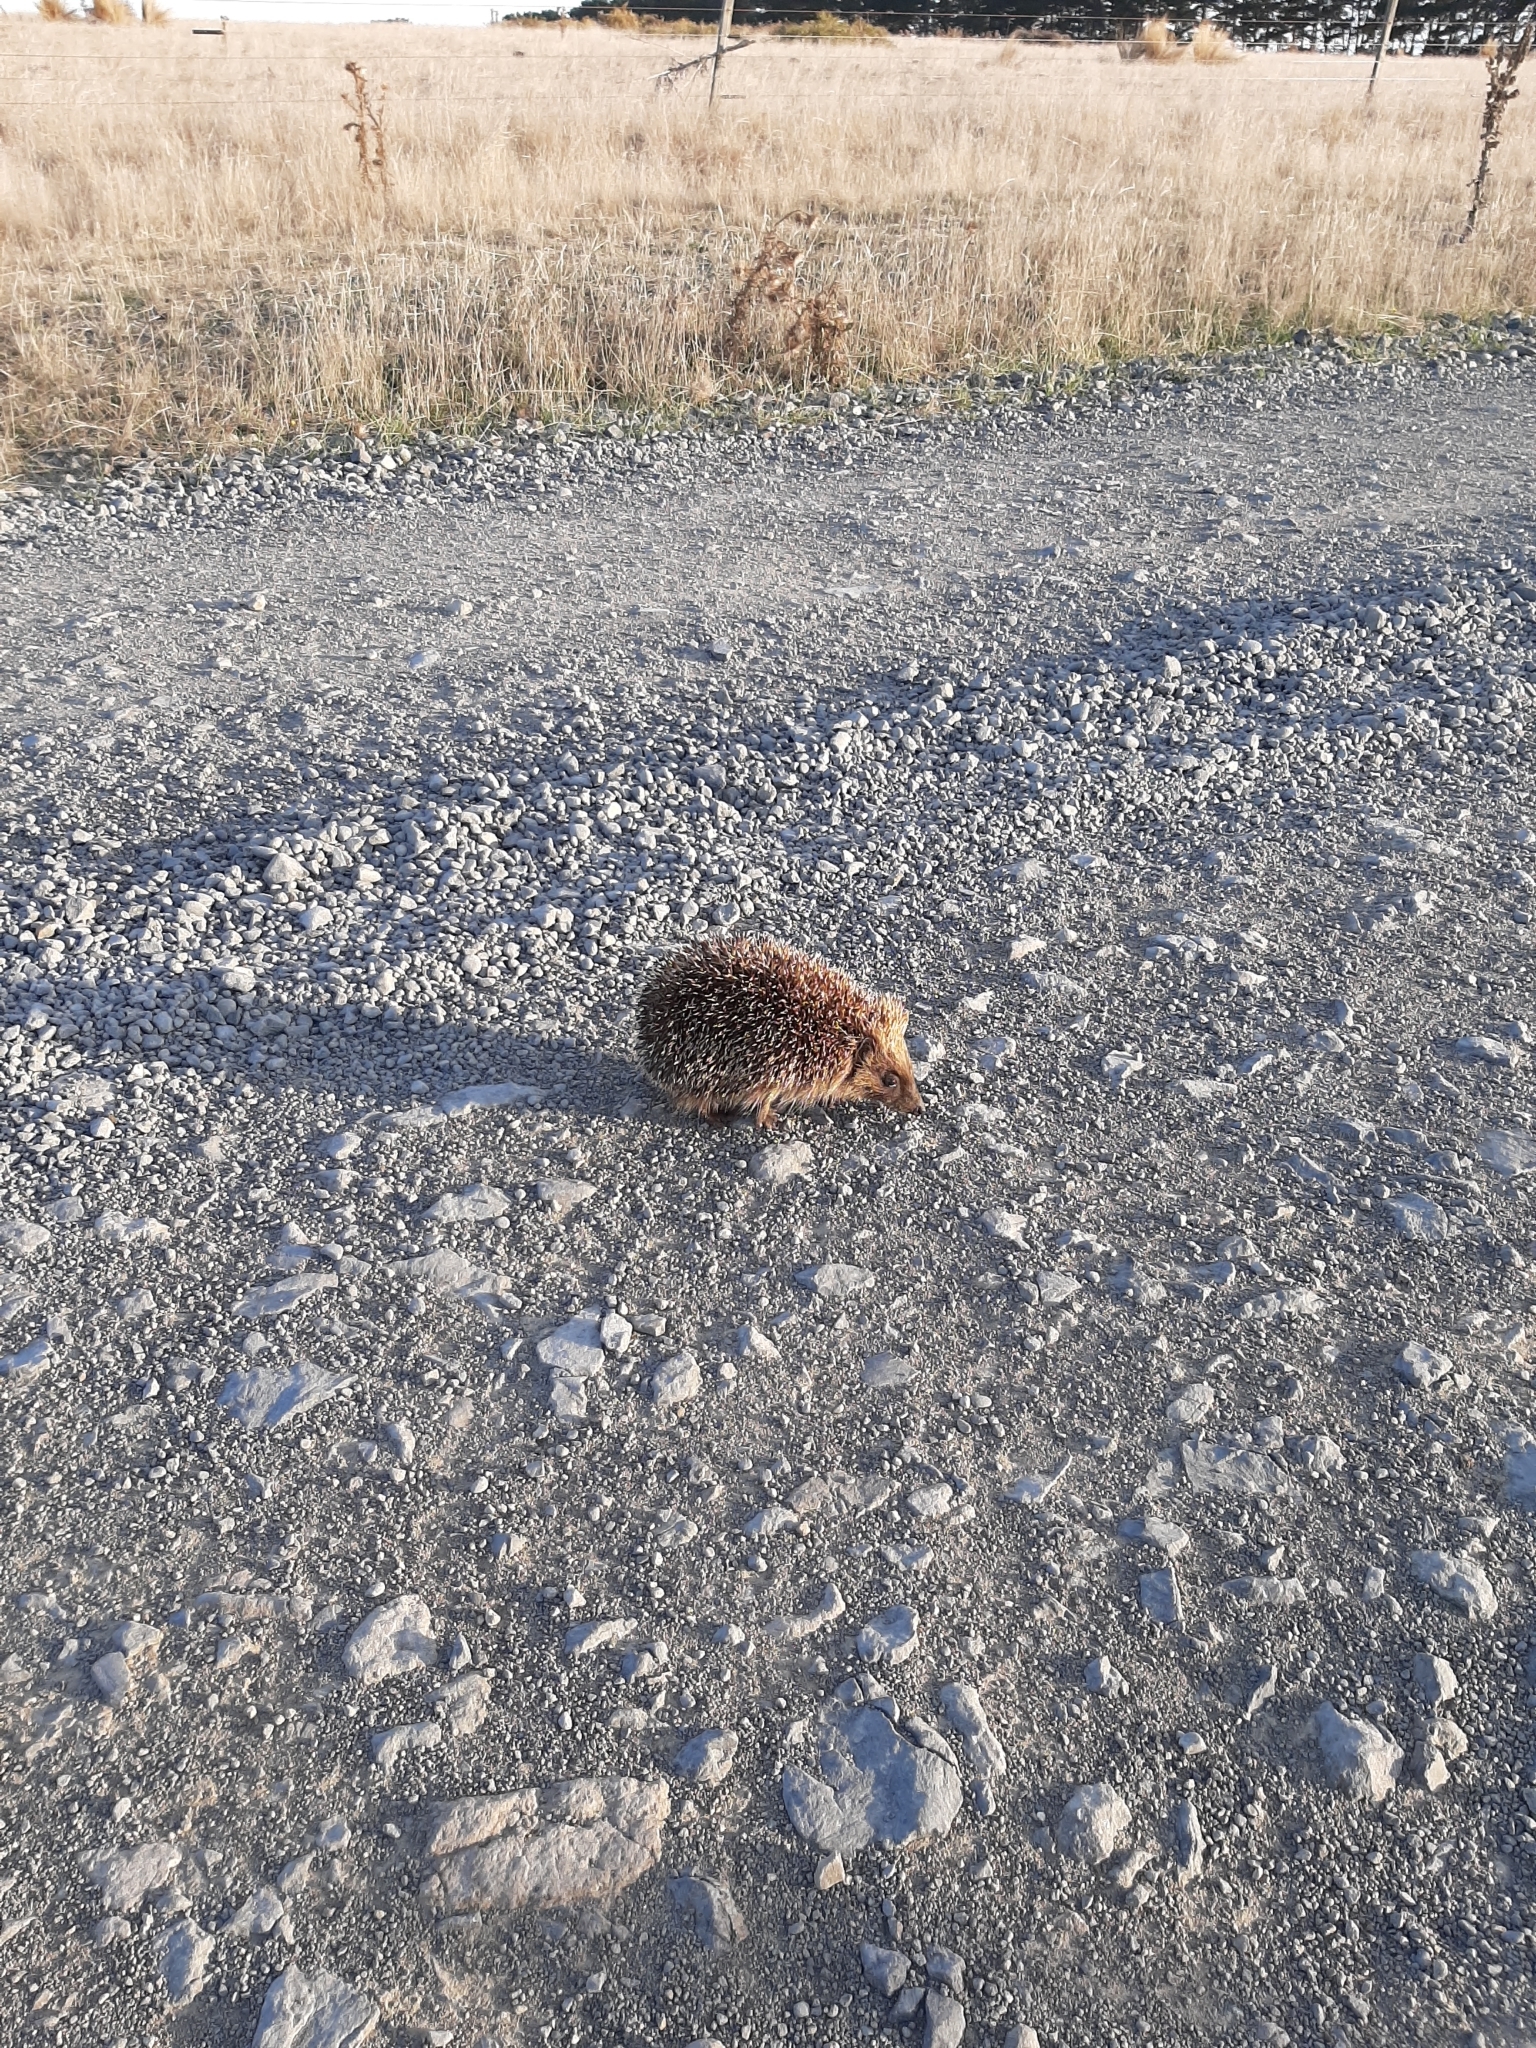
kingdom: Animalia
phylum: Chordata
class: Mammalia
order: Erinaceomorpha
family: Erinaceidae
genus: Erinaceus
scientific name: Erinaceus europaeus
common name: West european hedgehog
